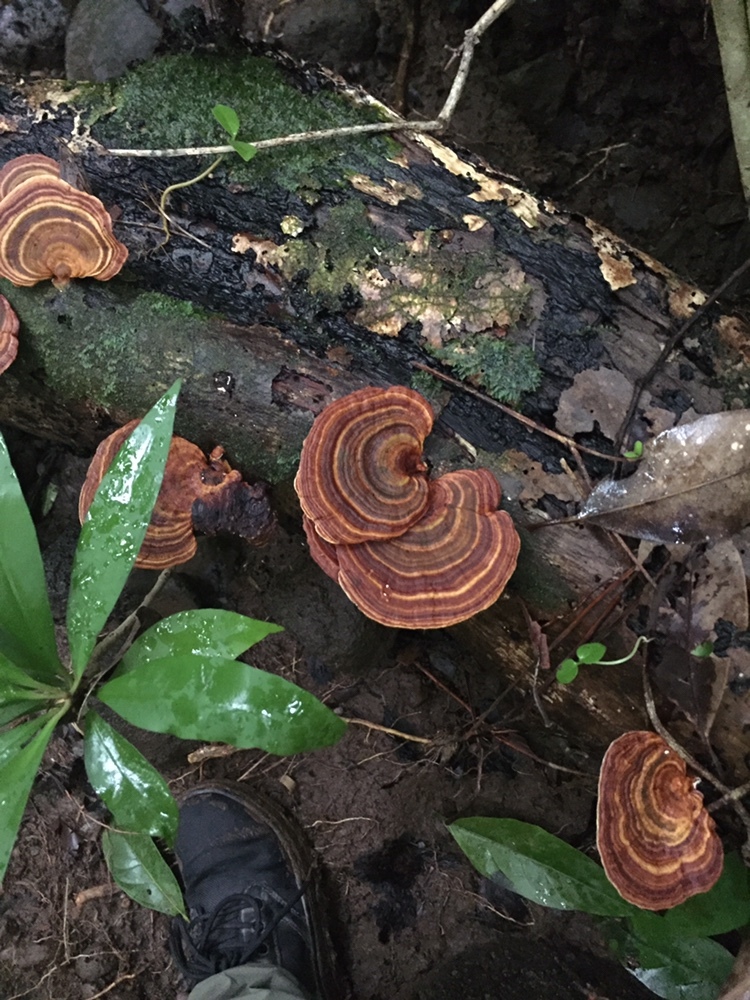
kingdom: Fungi
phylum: Basidiomycota
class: Agaricomycetes
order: Polyporales
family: Polyporaceae
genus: Microporus
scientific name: Microporus affinis
